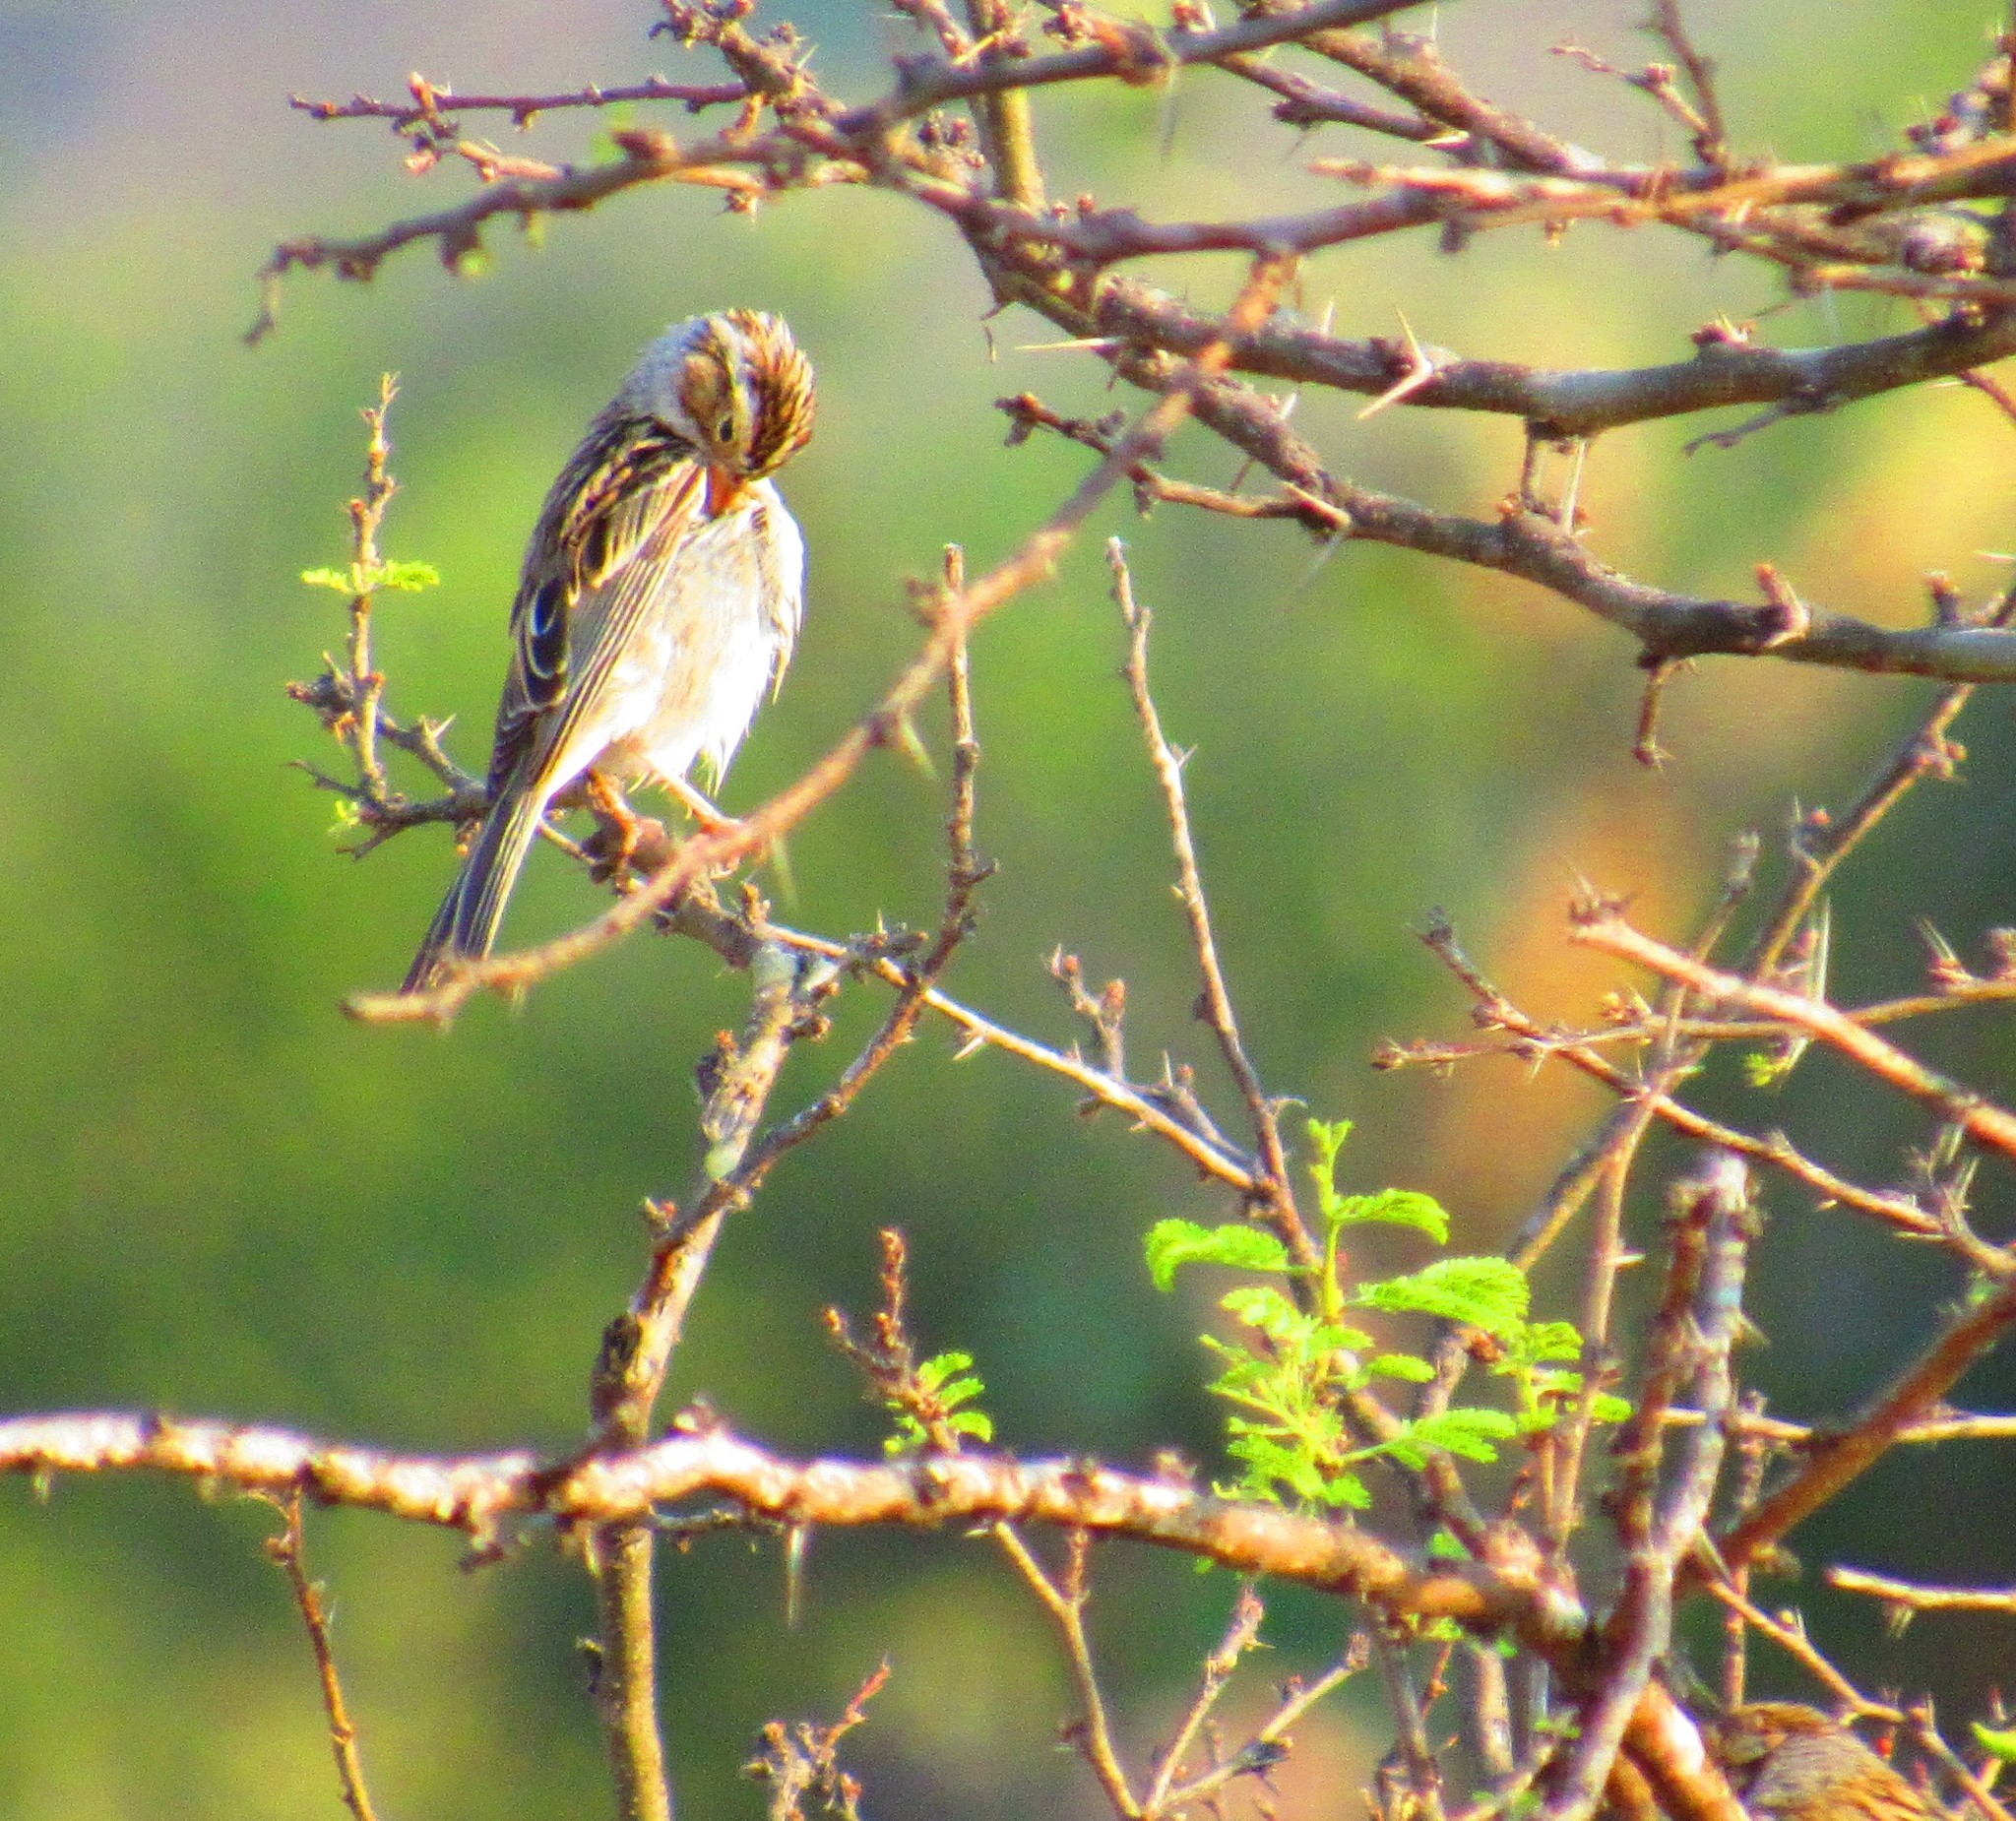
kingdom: Animalia
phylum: Chordata
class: Aves
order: Passeriformes
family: Passerellidae
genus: Spizella
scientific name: Spizella pallida
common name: Clay-colored sparrow
